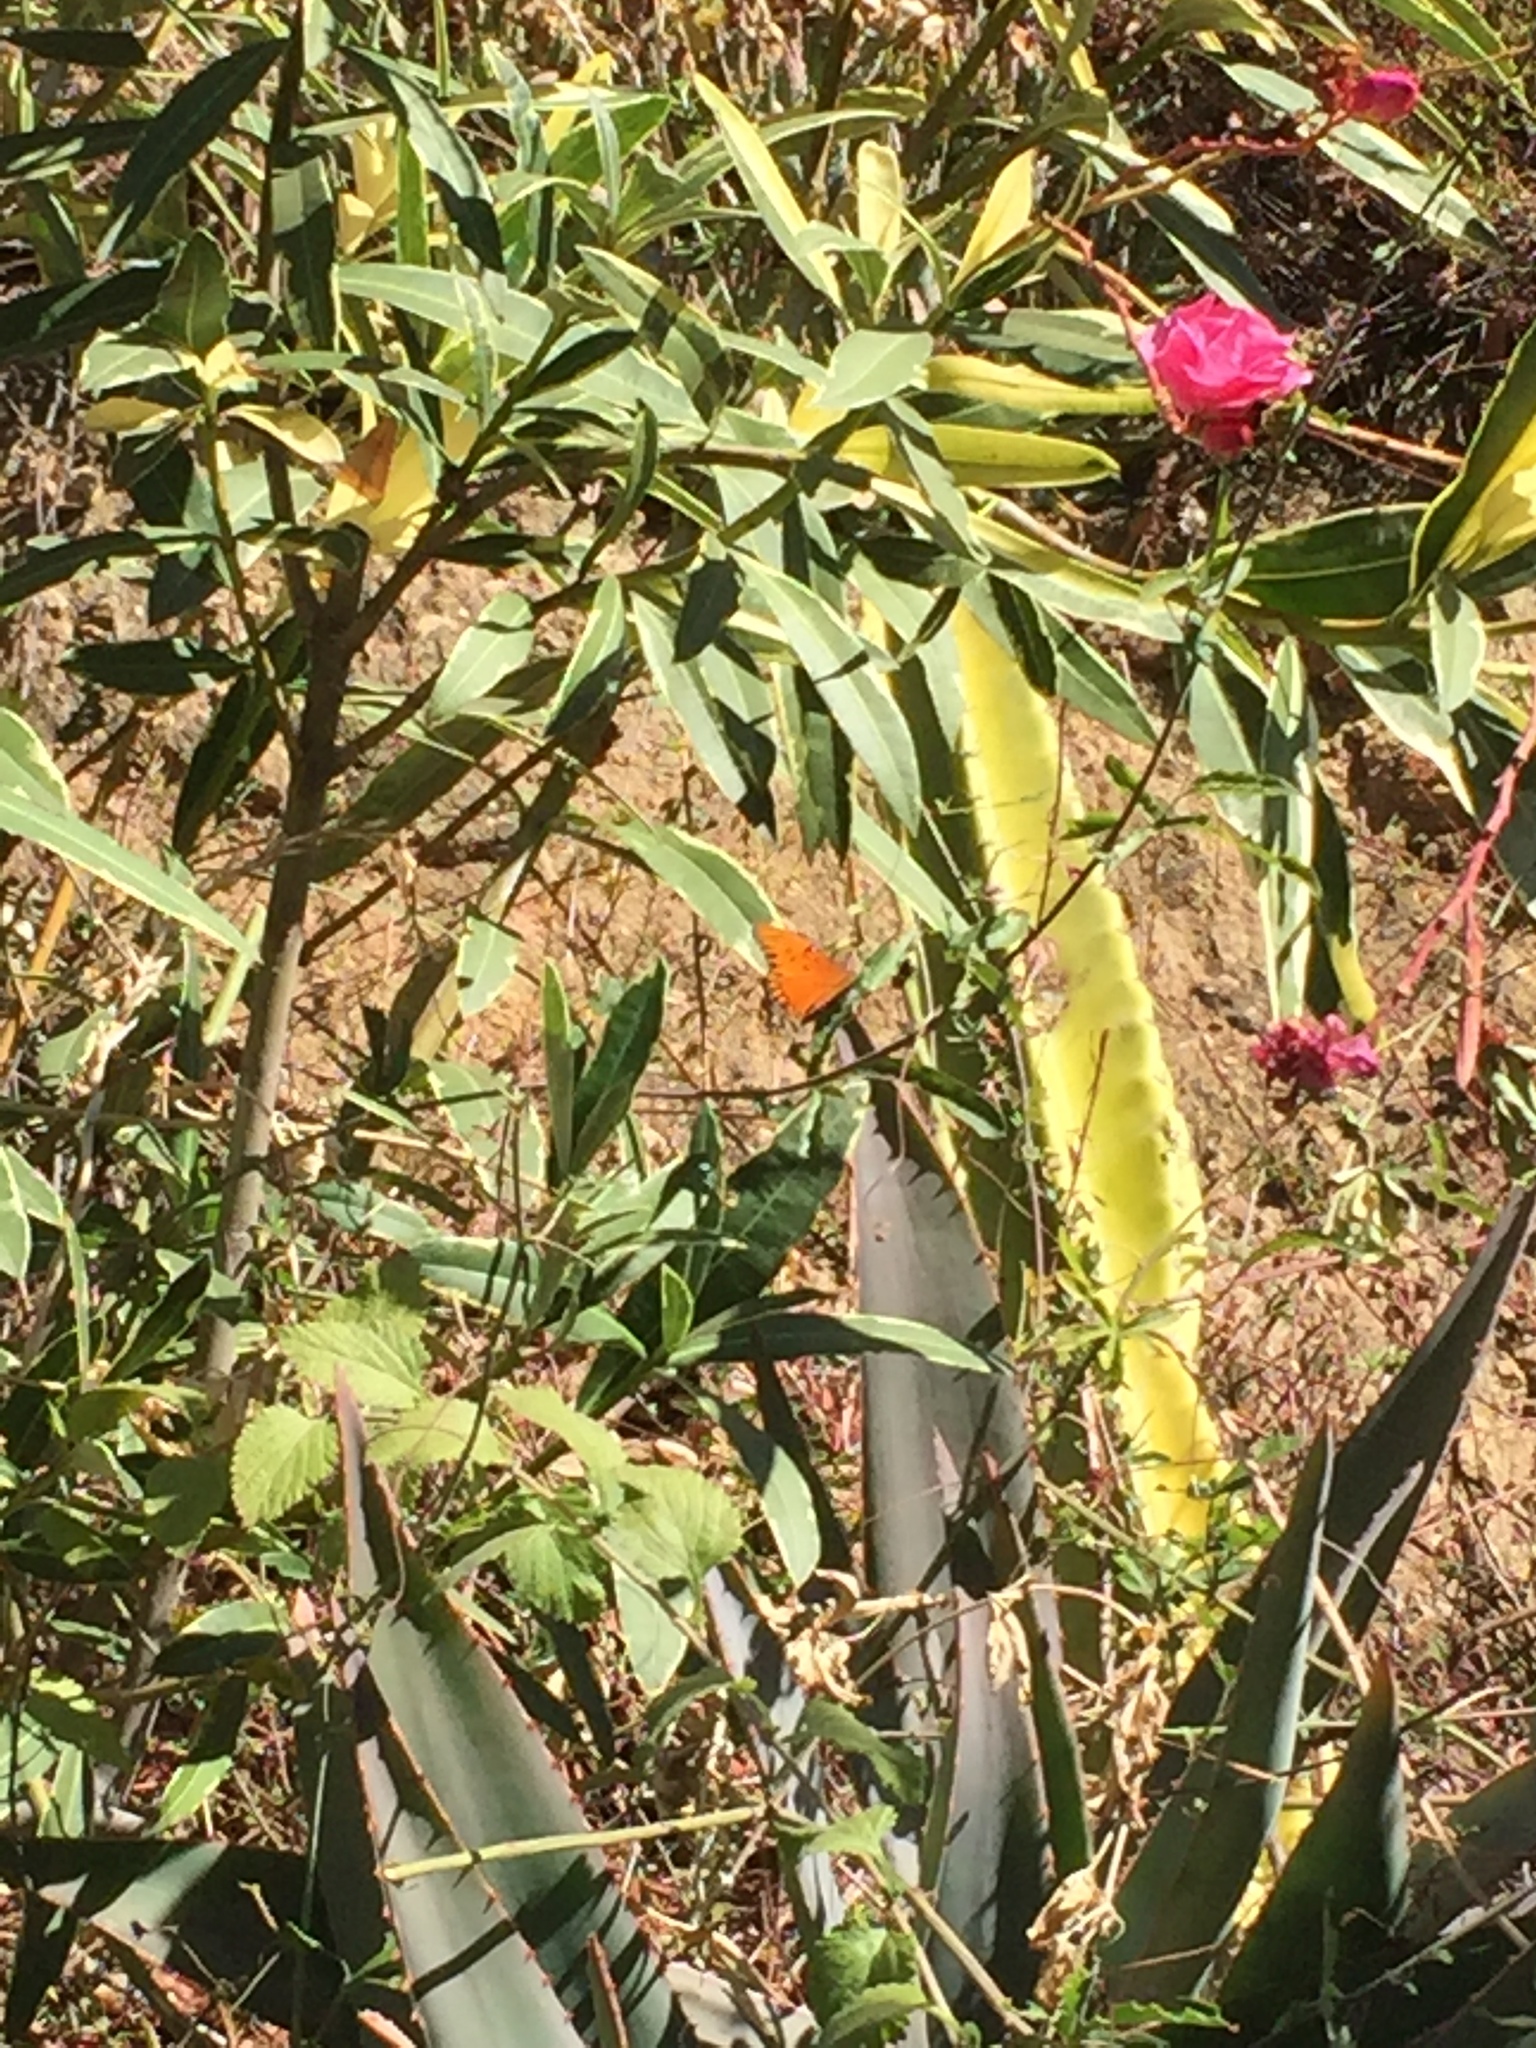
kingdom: Animalia
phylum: Arthropoda
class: Insecta
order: Lepidoptera
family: Nymphalidae
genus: Dione
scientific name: Dione vanillae
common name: Gulf fritillary
